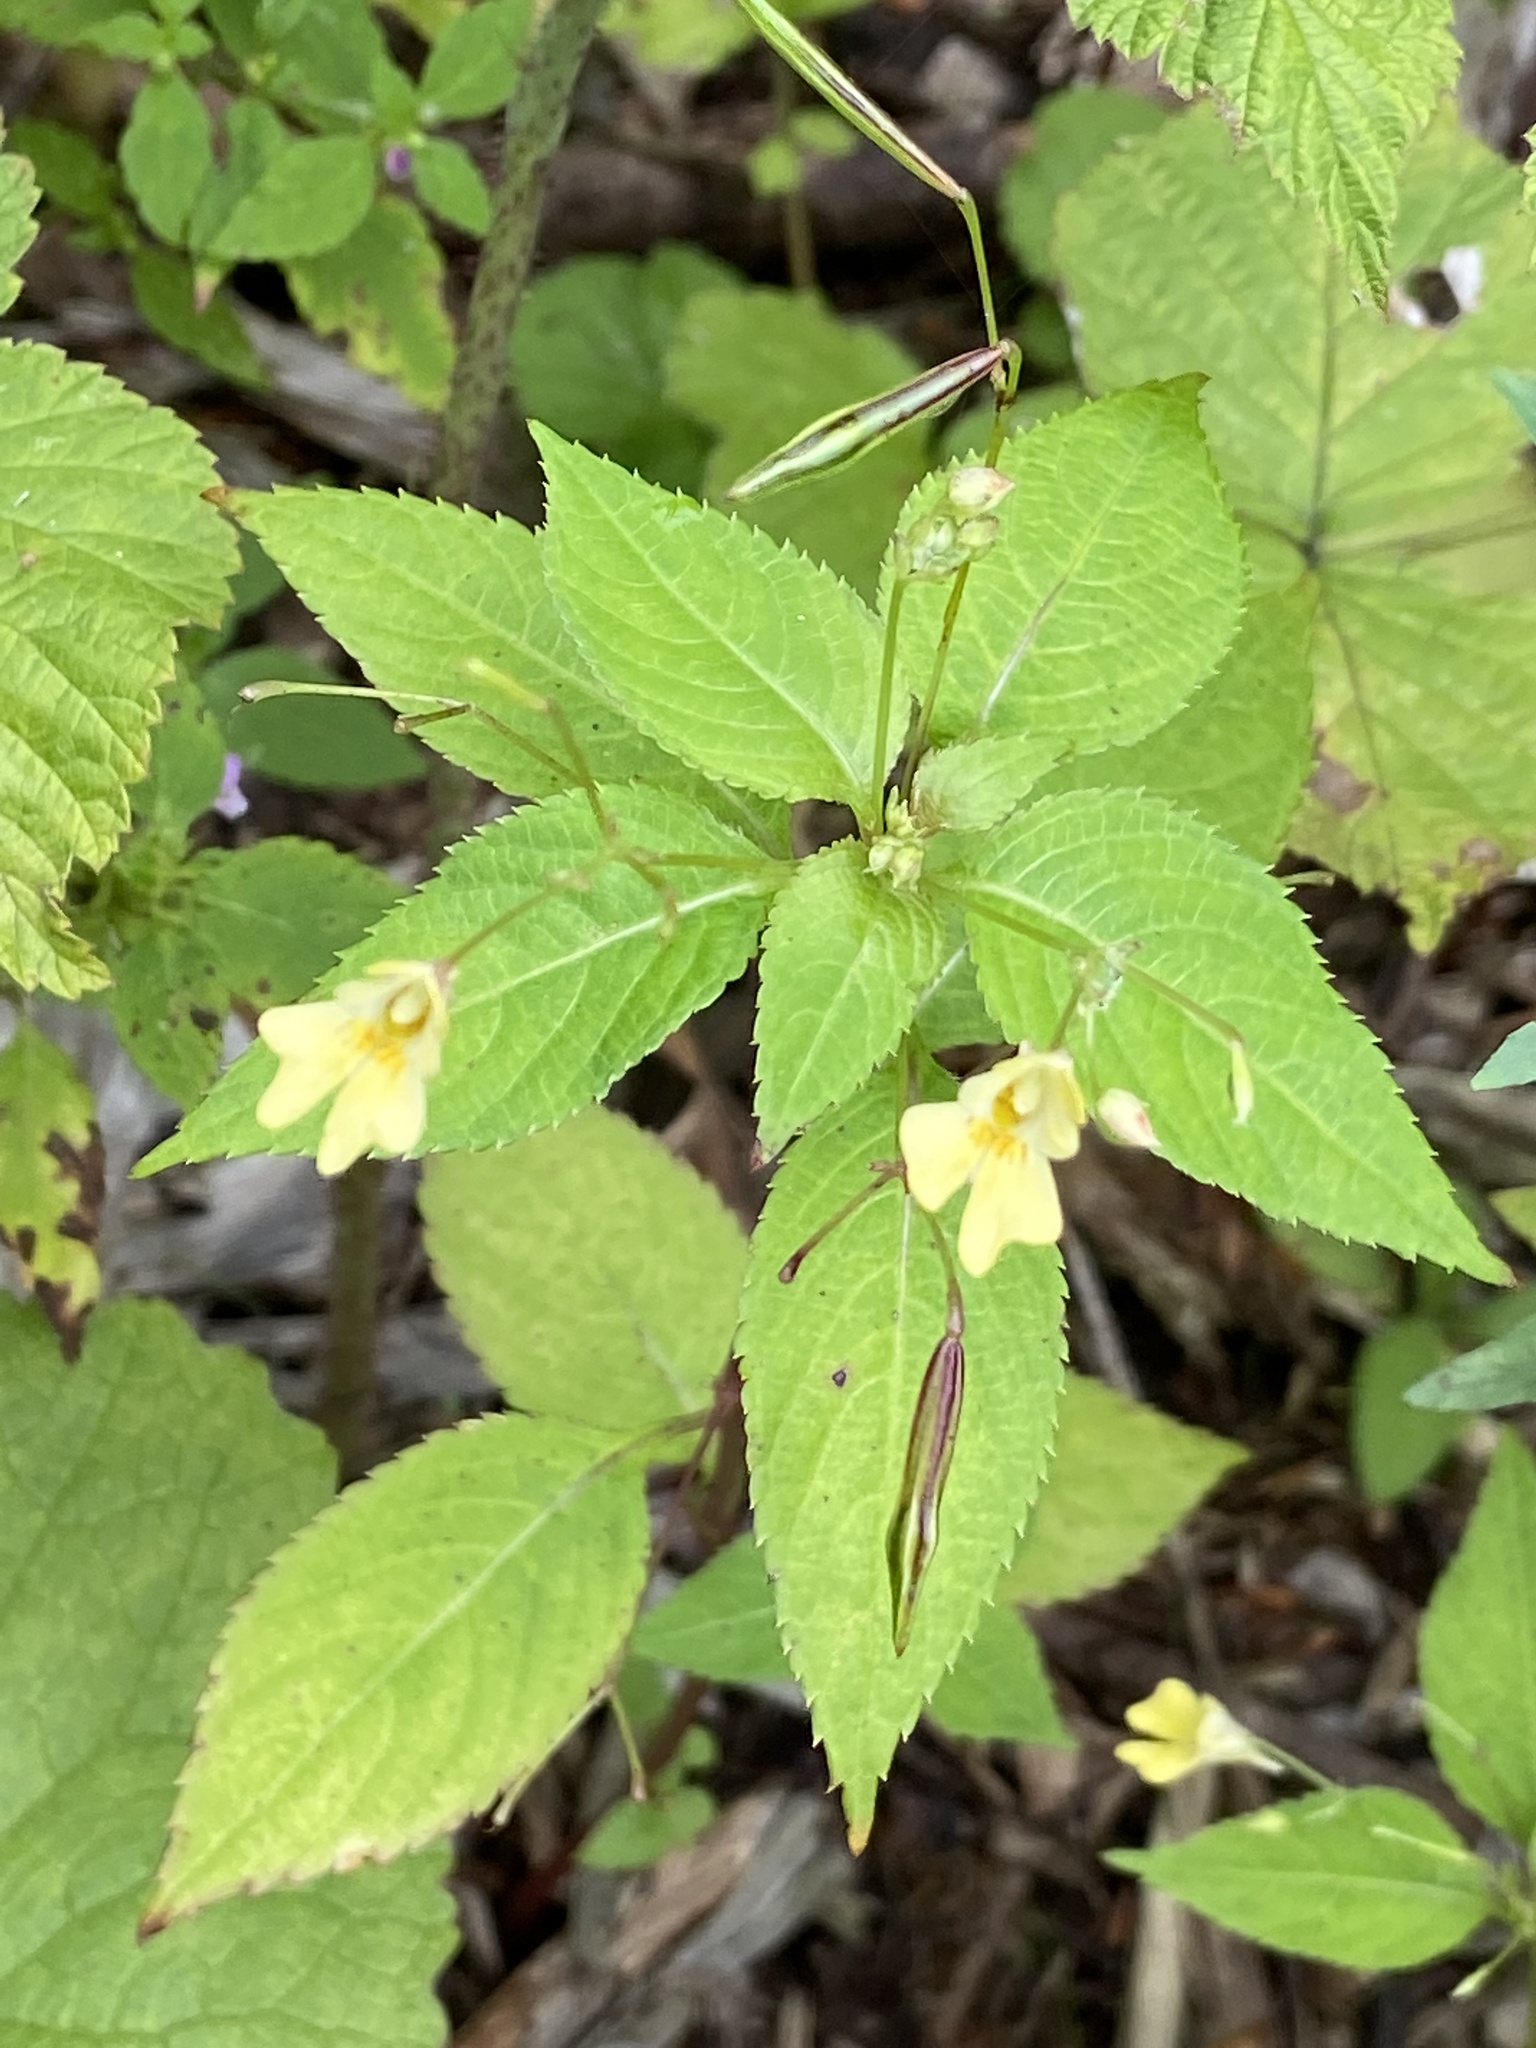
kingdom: Plantae
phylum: Tracheophyta
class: Magnoliopsida
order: Ericales
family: Balsaminaceae
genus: Impatiens
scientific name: Impatiens parviflora
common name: Small balsam
